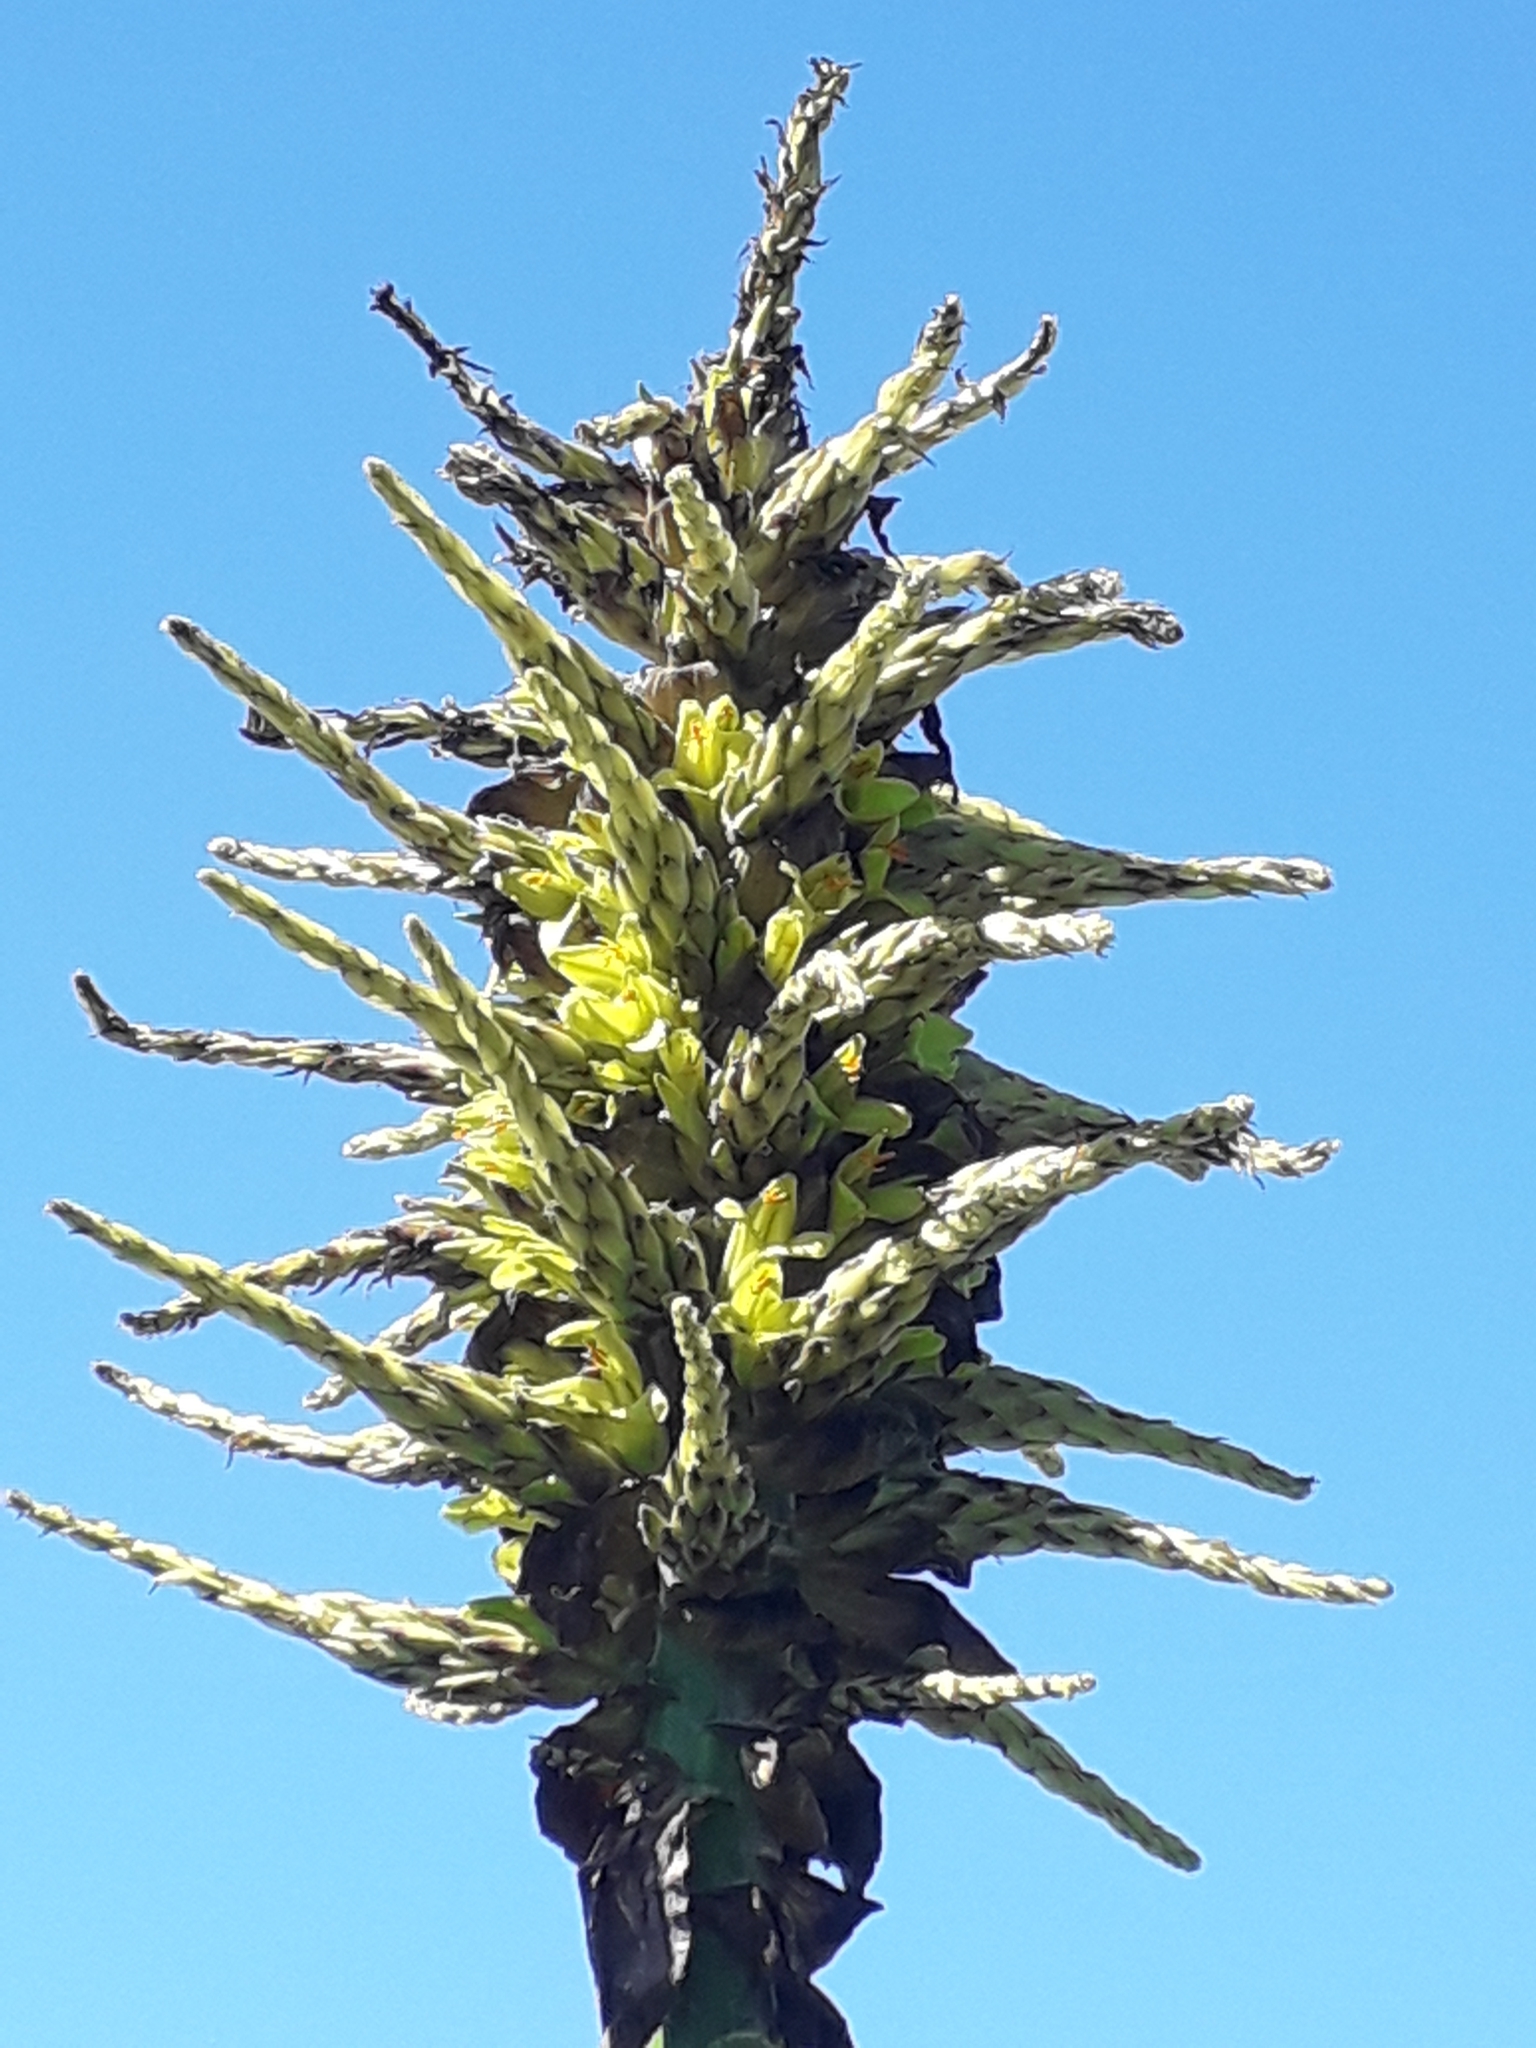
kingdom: Plantae
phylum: Tracheophyta
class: Liliopsida
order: Poales
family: Bromeliaceae
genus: Puya
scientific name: Puya chilensis
